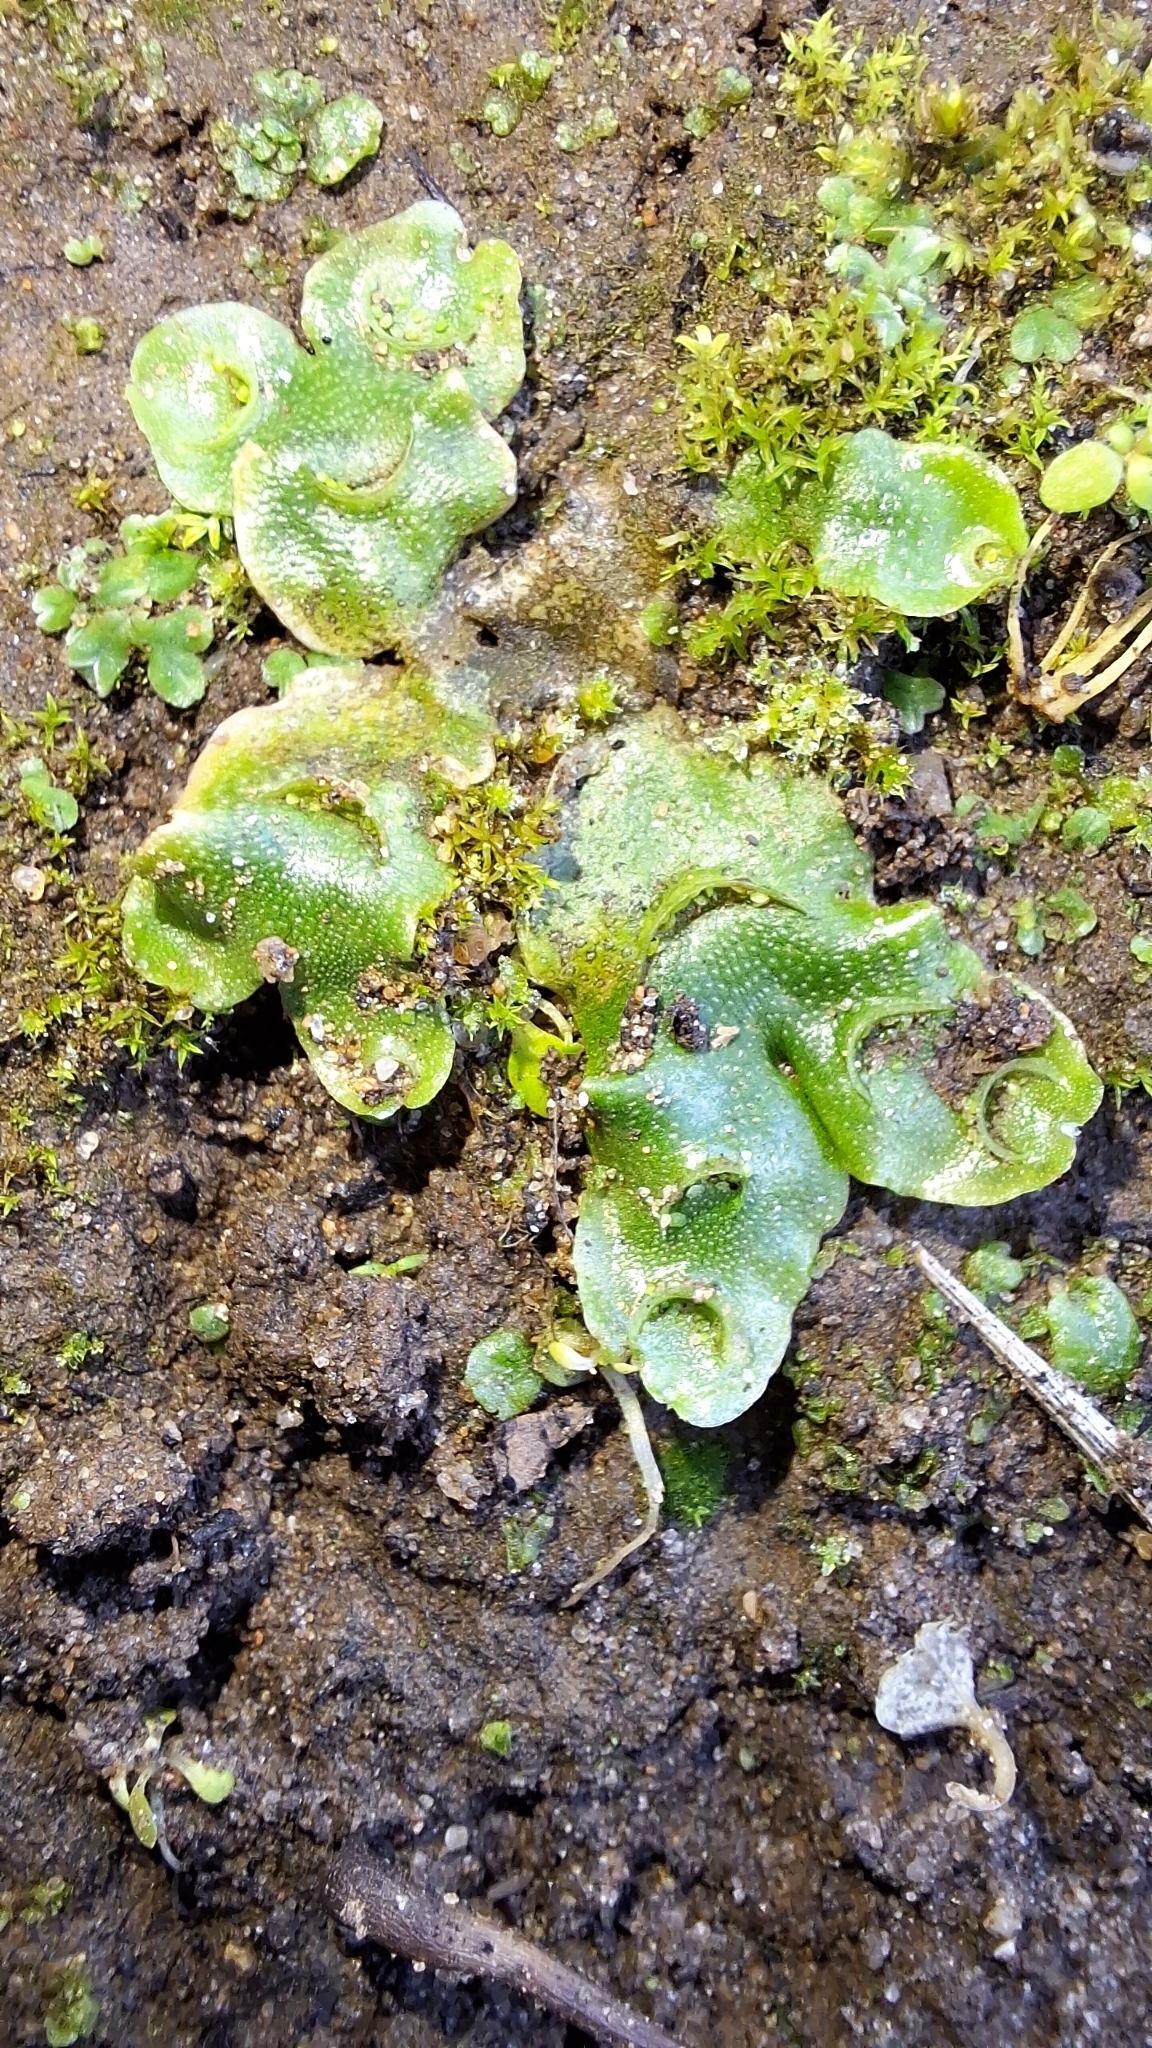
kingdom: Plantae
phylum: Marchantiophyta
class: Marchantiopsida
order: Lunulariales
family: Lunulariaceae
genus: Lunularia
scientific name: Lunularia cruciata
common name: Crescent-cup liverwort
